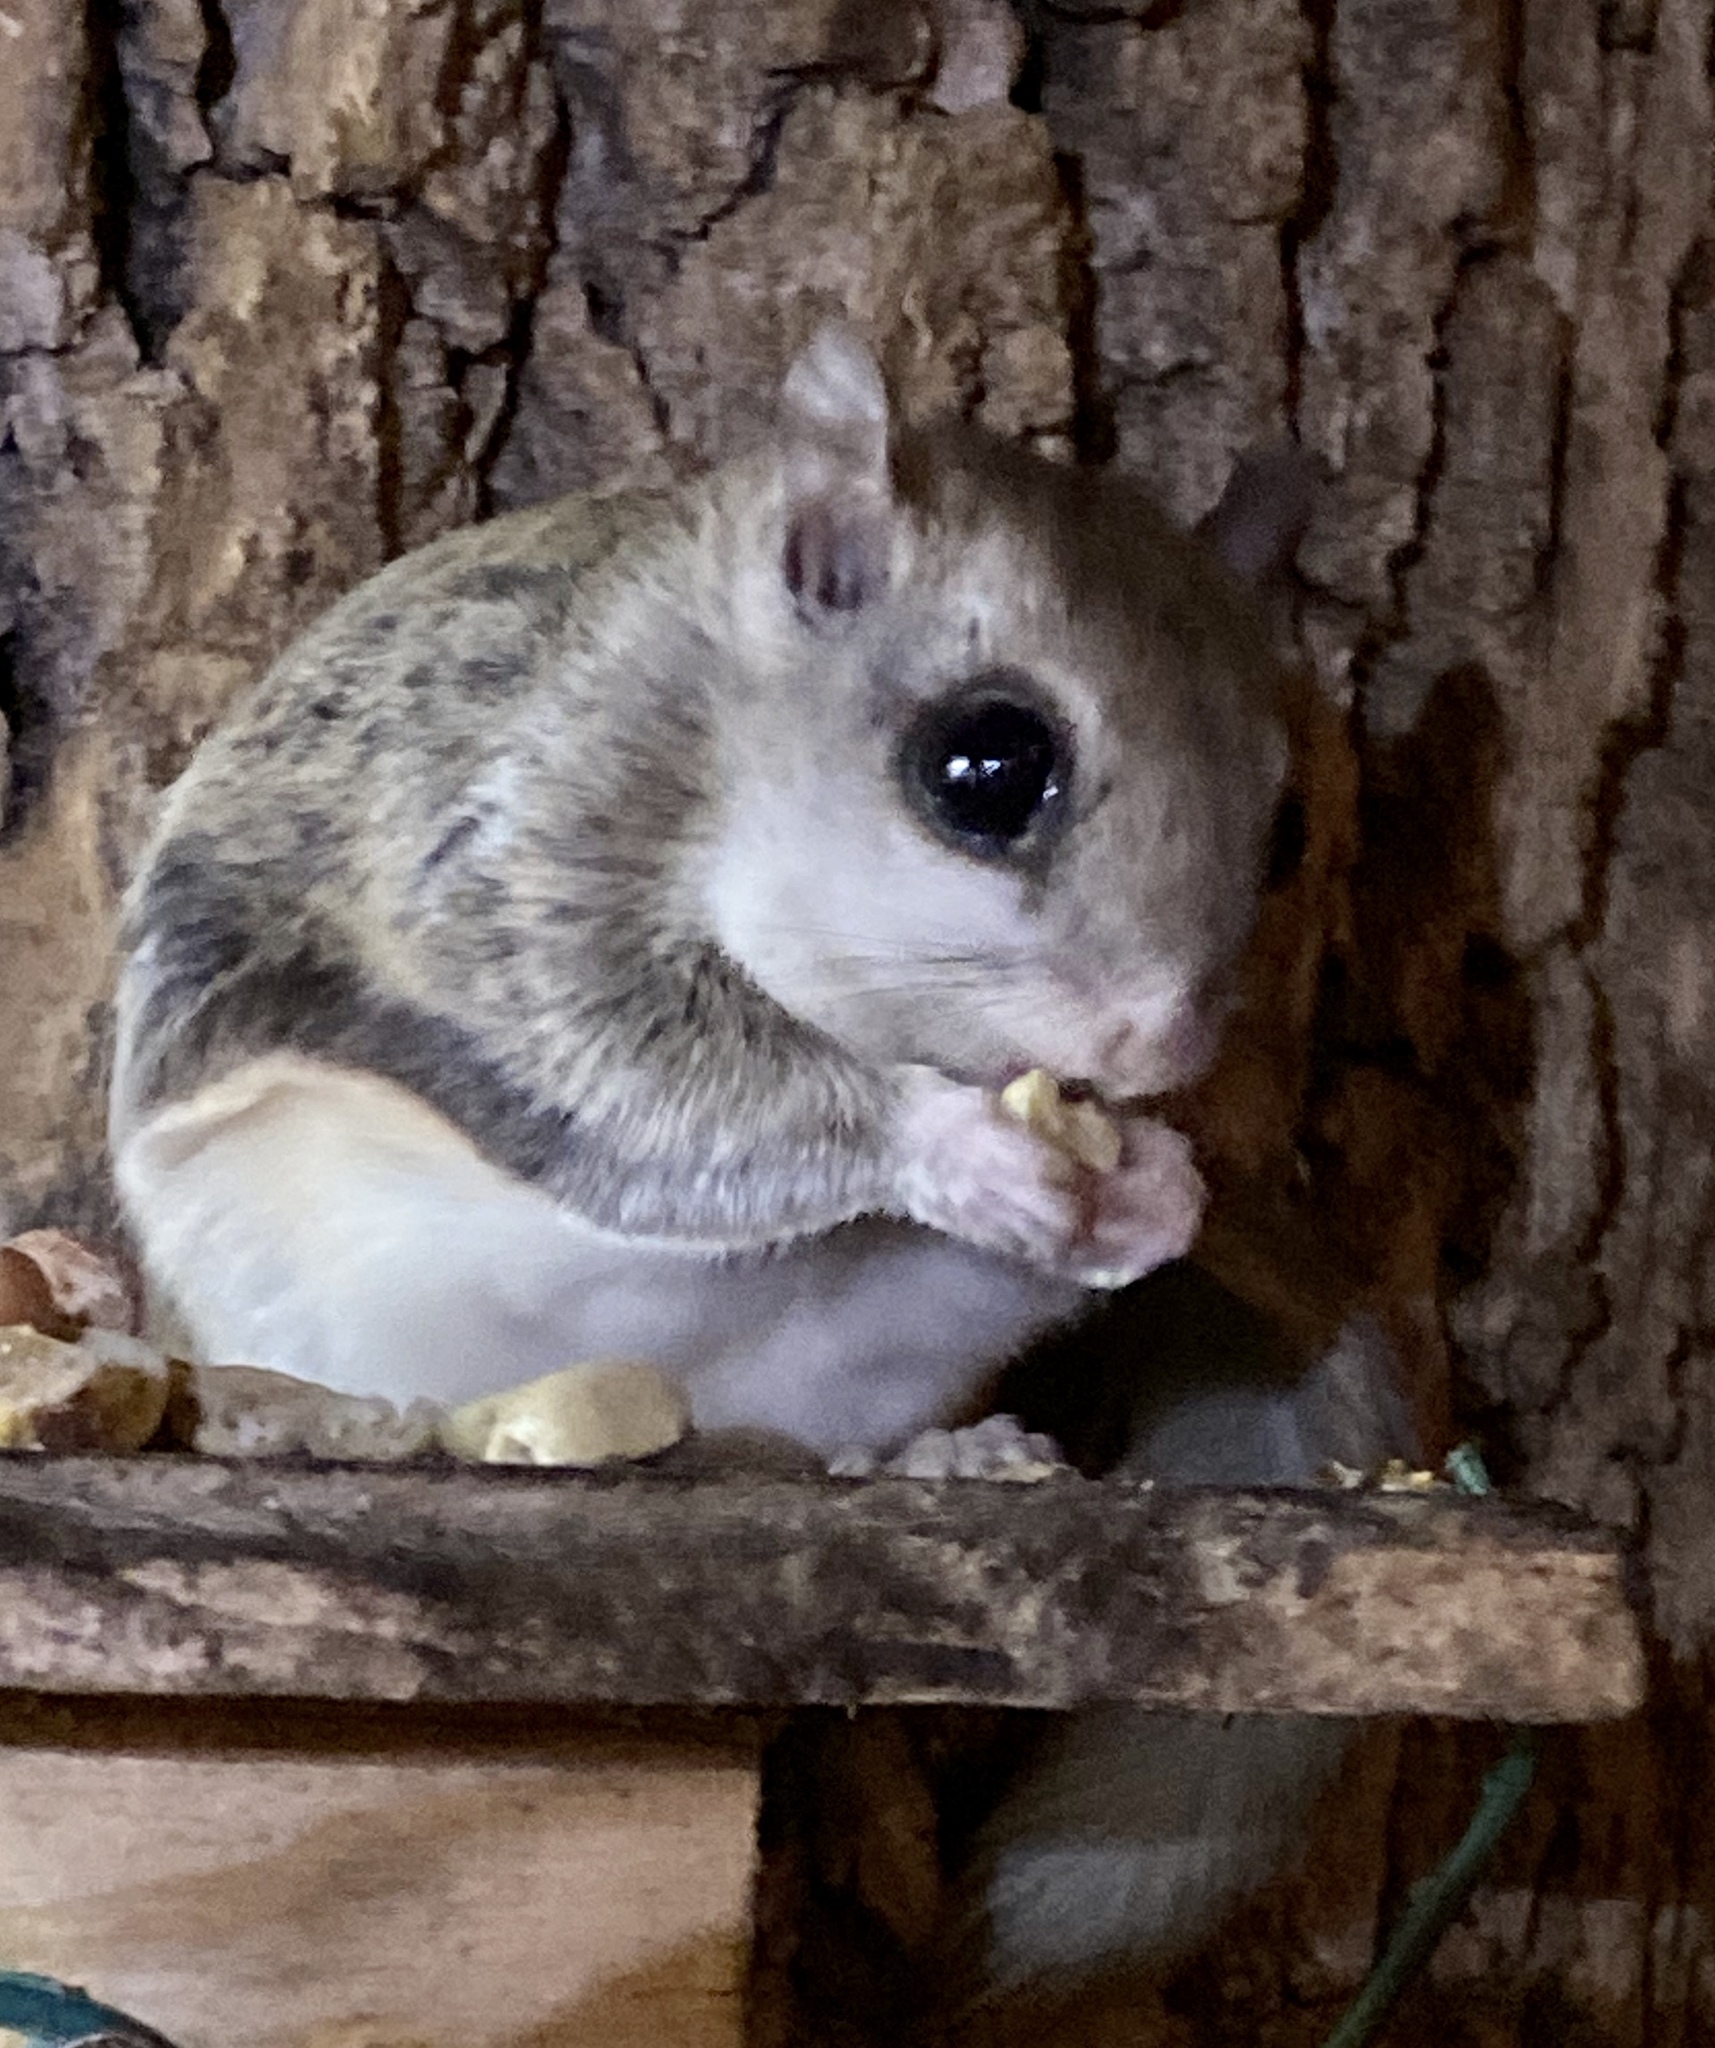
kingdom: Animalia
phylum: Chordata
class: Mammalia
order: Rodentia
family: Sciuridae
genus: Glaucomys
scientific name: Glaucomys volans
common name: Southern flying squirrel
